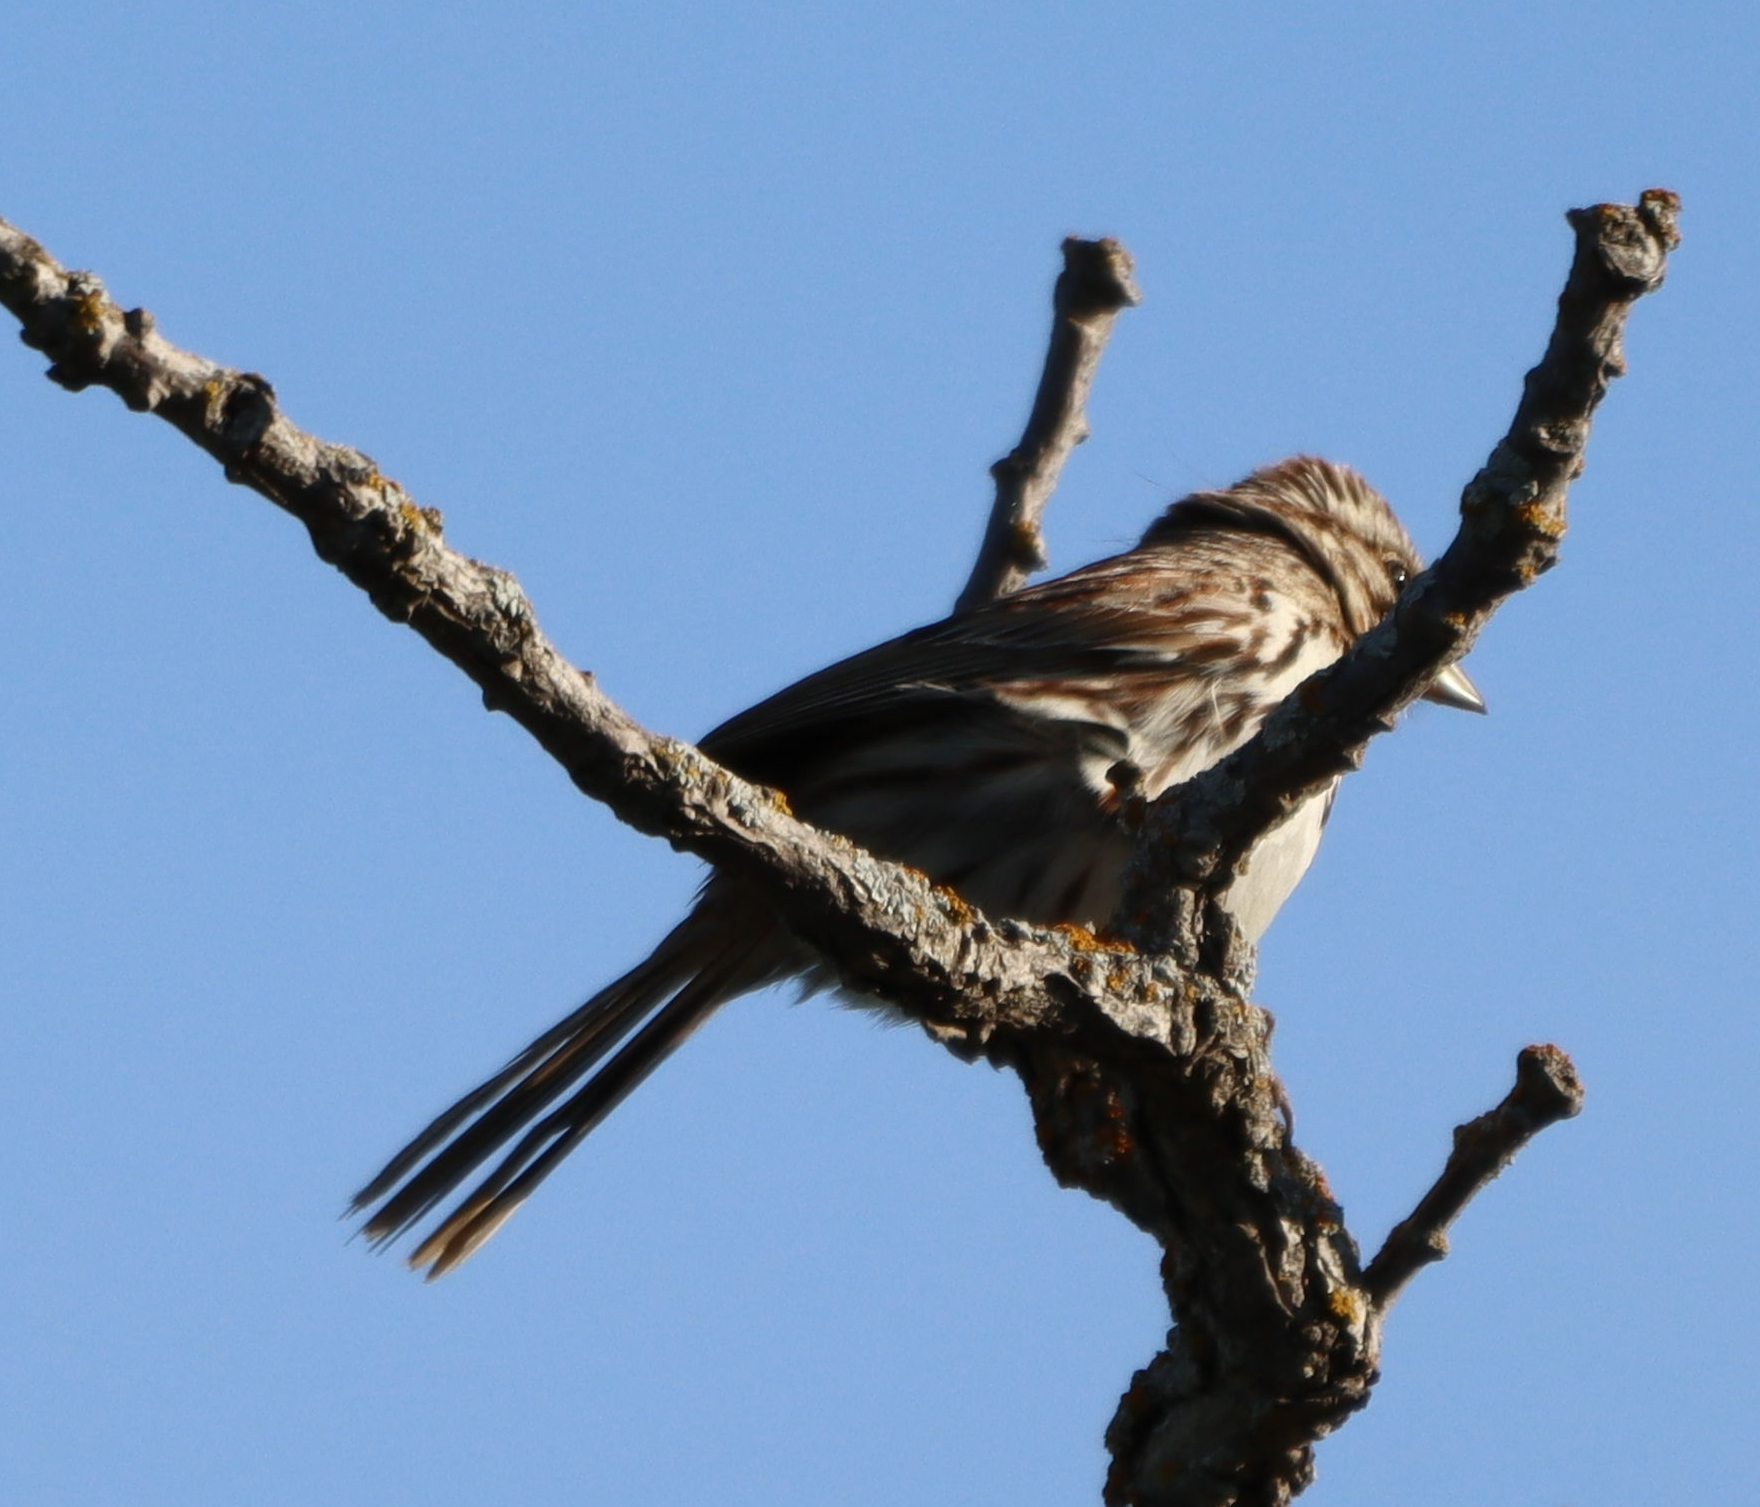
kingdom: Animalia
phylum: Chordata
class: Aves
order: Passeriformes
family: Passerellidae
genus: Melospiza
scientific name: Melospiza melodia
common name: Song sparrow
